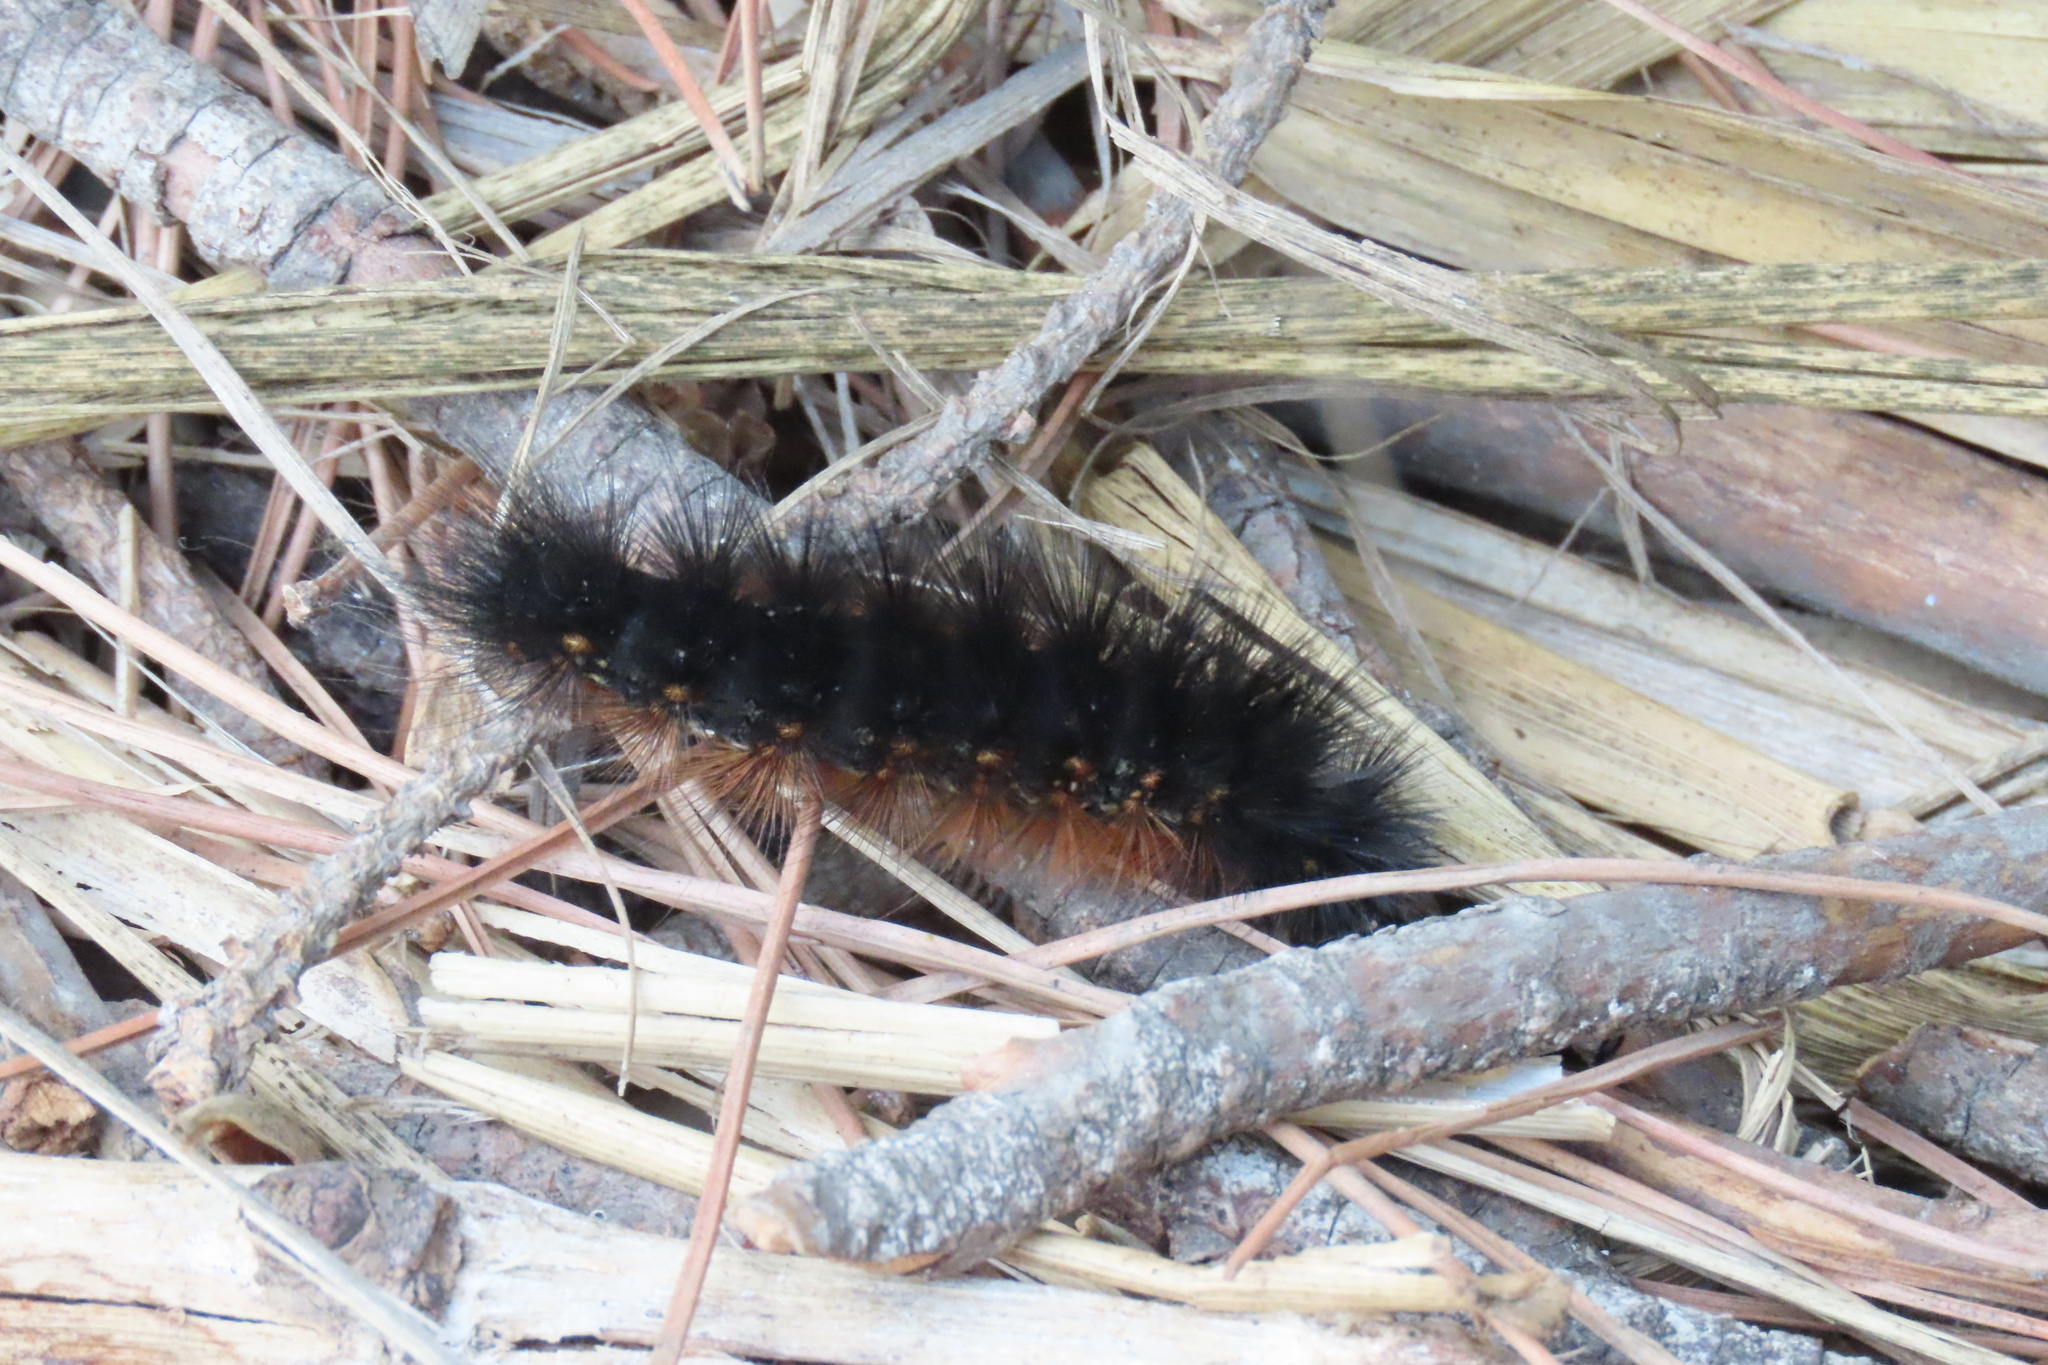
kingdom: Animalia
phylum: Arthropoda
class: Insecta
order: Lepidoptera
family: Erebidae
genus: Estigmene
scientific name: Estigmene acrea
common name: Salt marsh moth
